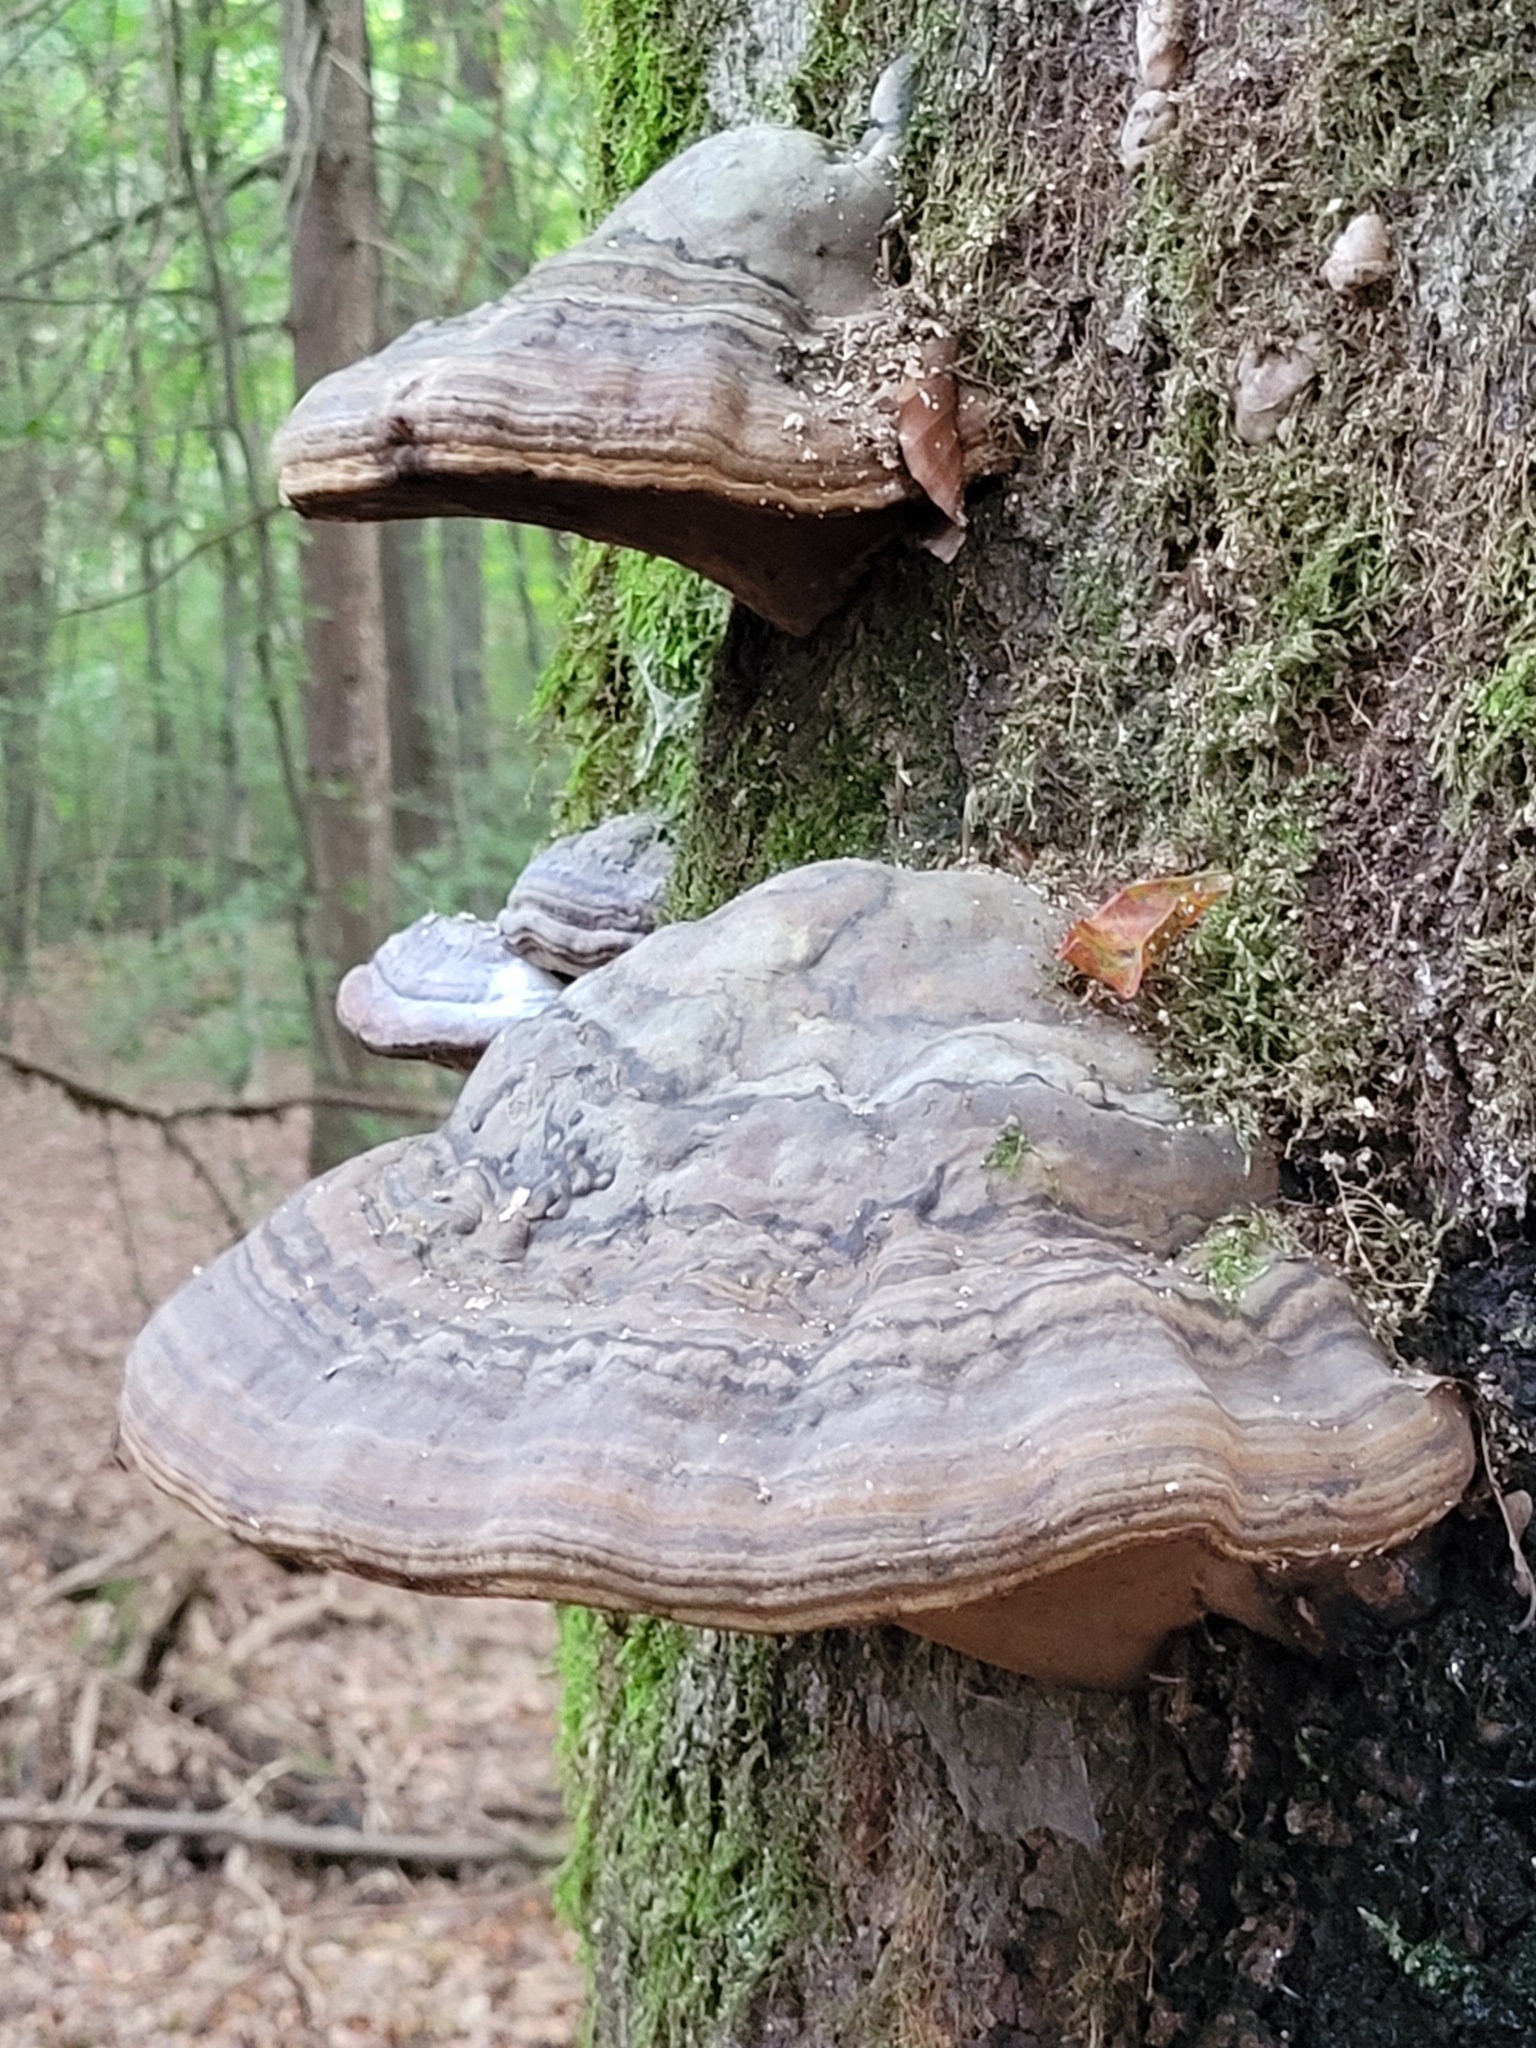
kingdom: Fungi
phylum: Basidiomycota
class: Agaricomycetes
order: Polyporales
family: Polyporaceae
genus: Fomes
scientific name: Fomes fomentarius
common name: Hoof fungus
